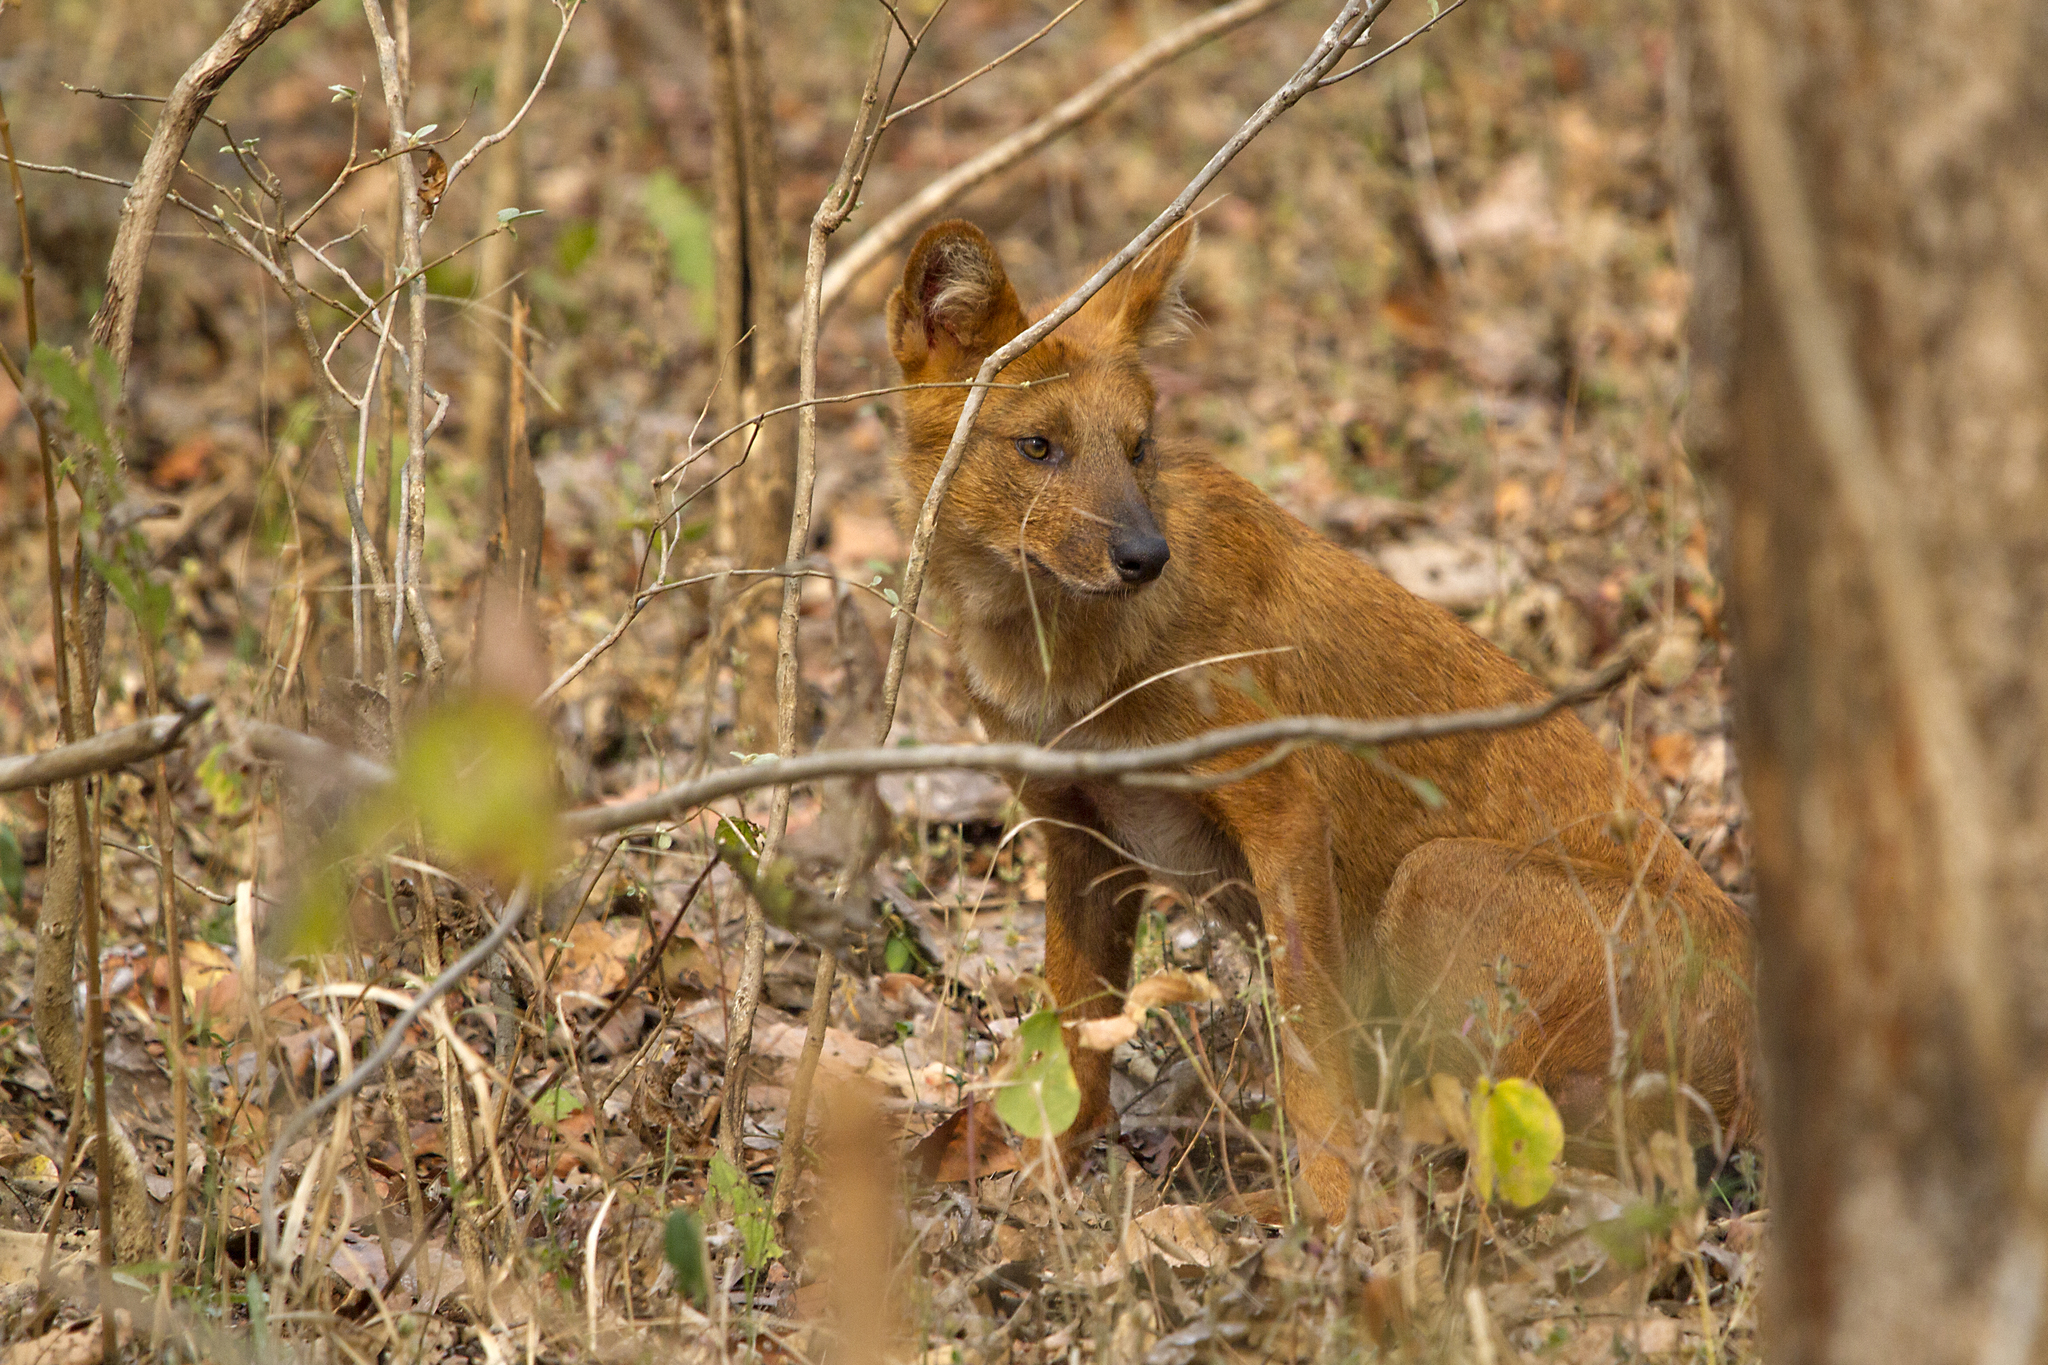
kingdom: Animalia
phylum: Chordata
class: Mammalia
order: Carnivora
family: Canidae
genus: Cuon
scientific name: Cuon alpinus
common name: Dhole
